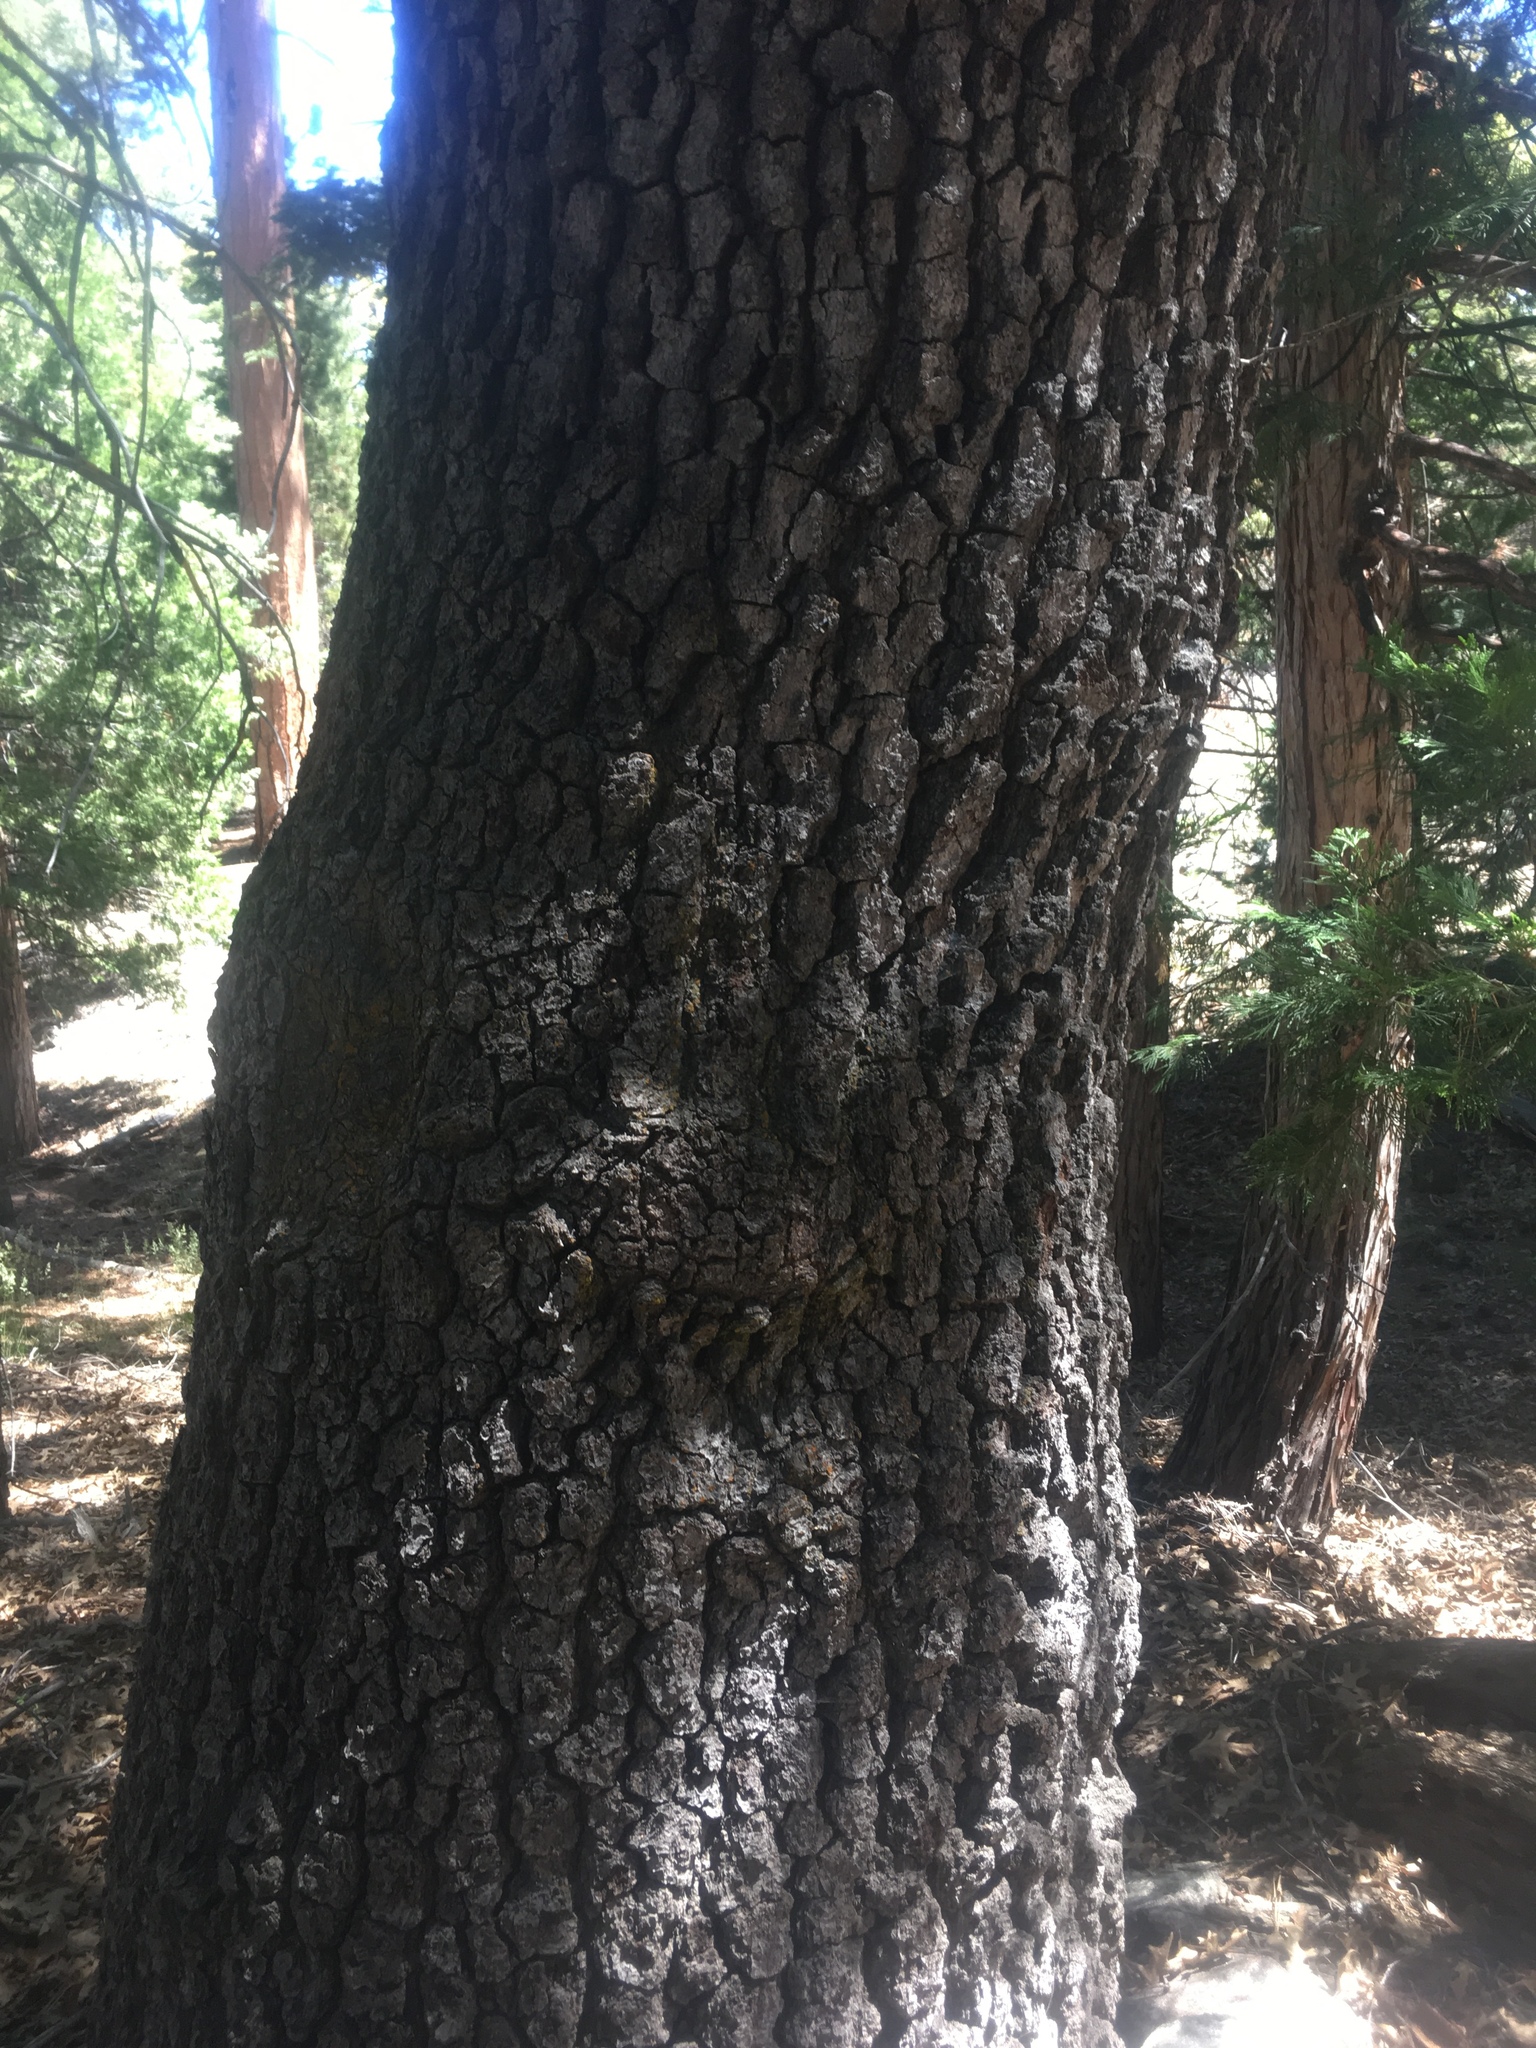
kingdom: Plantae
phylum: Tracheophyta
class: Magnoliopsida
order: Fagales
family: Fagaceae
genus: Quercus
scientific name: Quercus kelloggii
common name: California black oak
